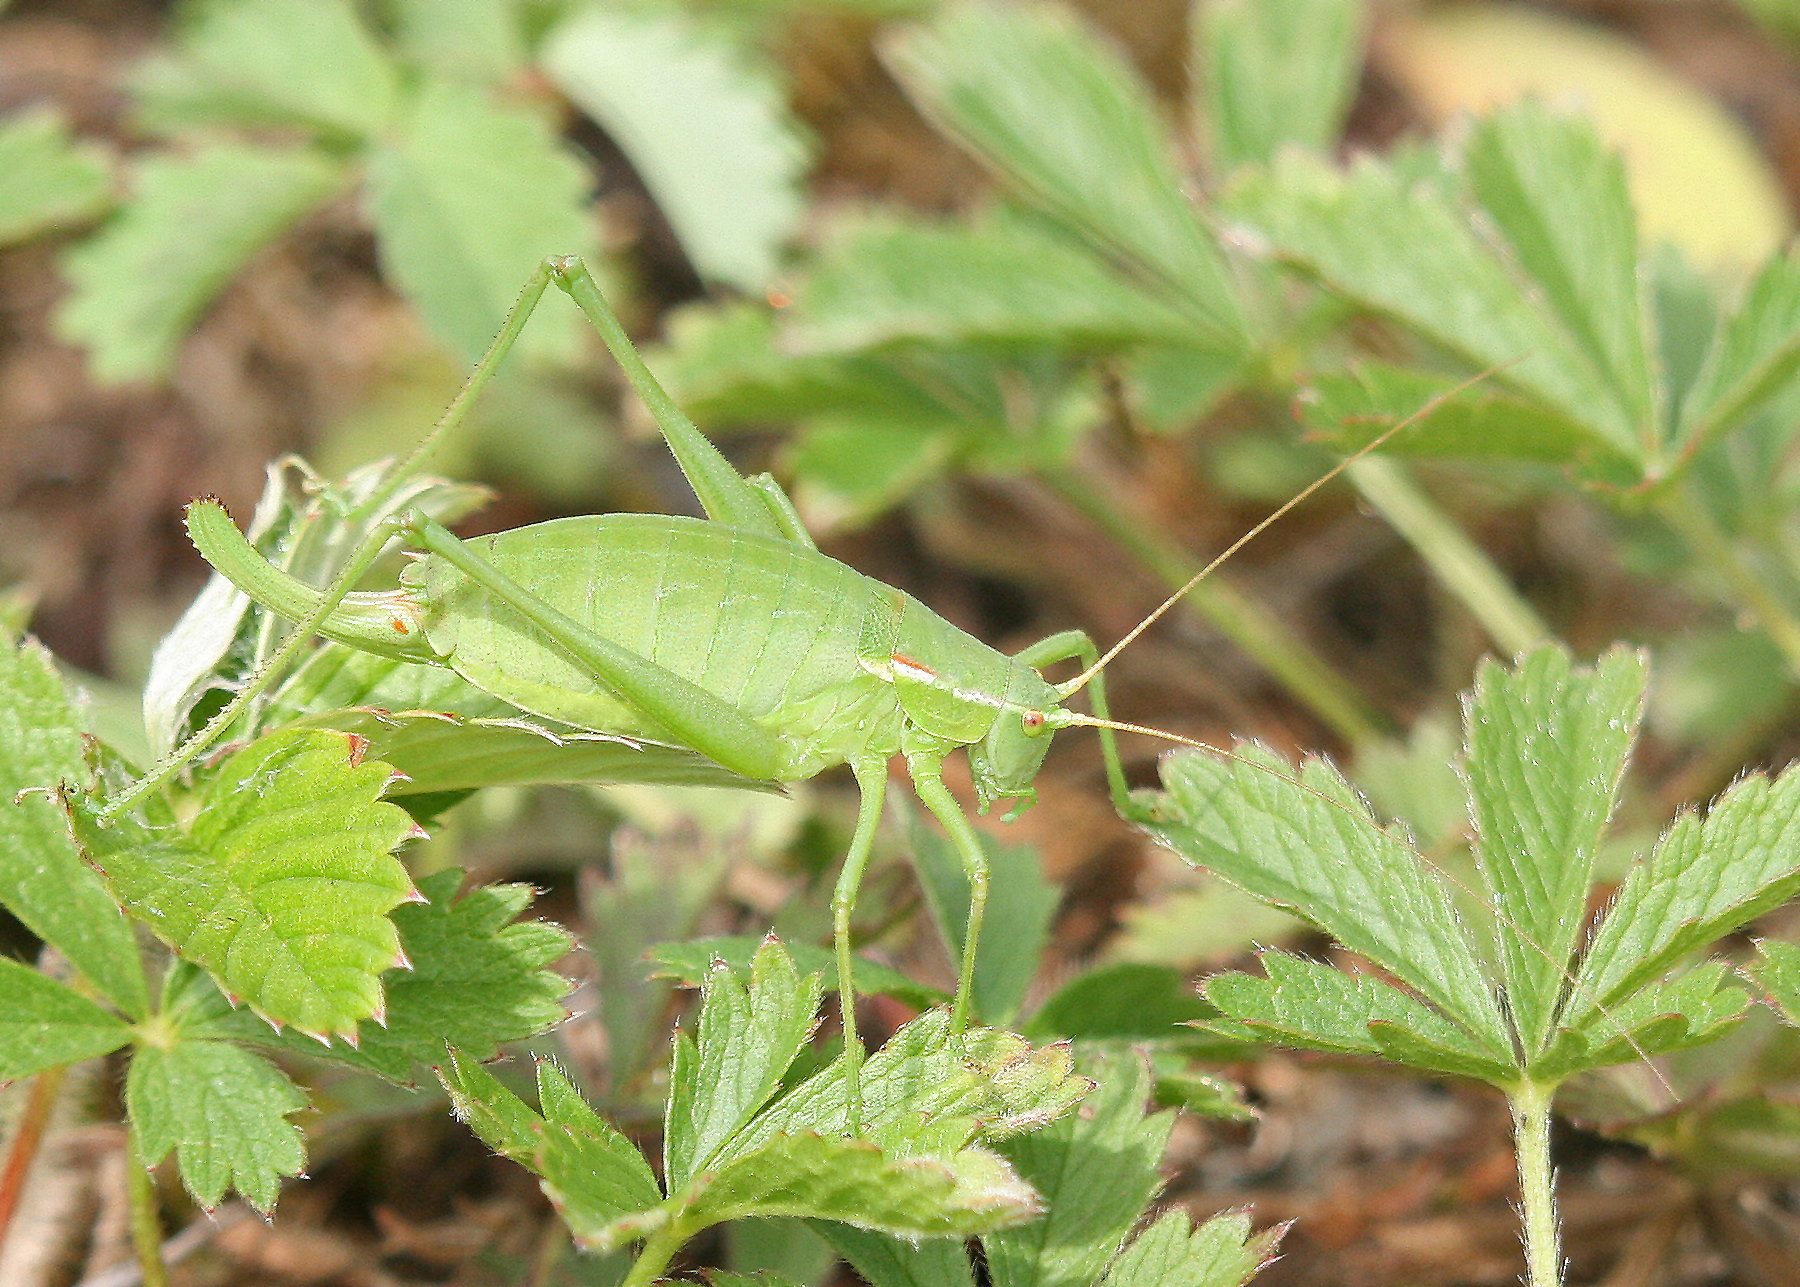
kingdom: Animalia
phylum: Arthropoda
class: Insecta
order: Orthoptera
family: Tettigoniidae
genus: Isophya
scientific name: Isophya kraussii
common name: Krauss's plump bush-cricket
